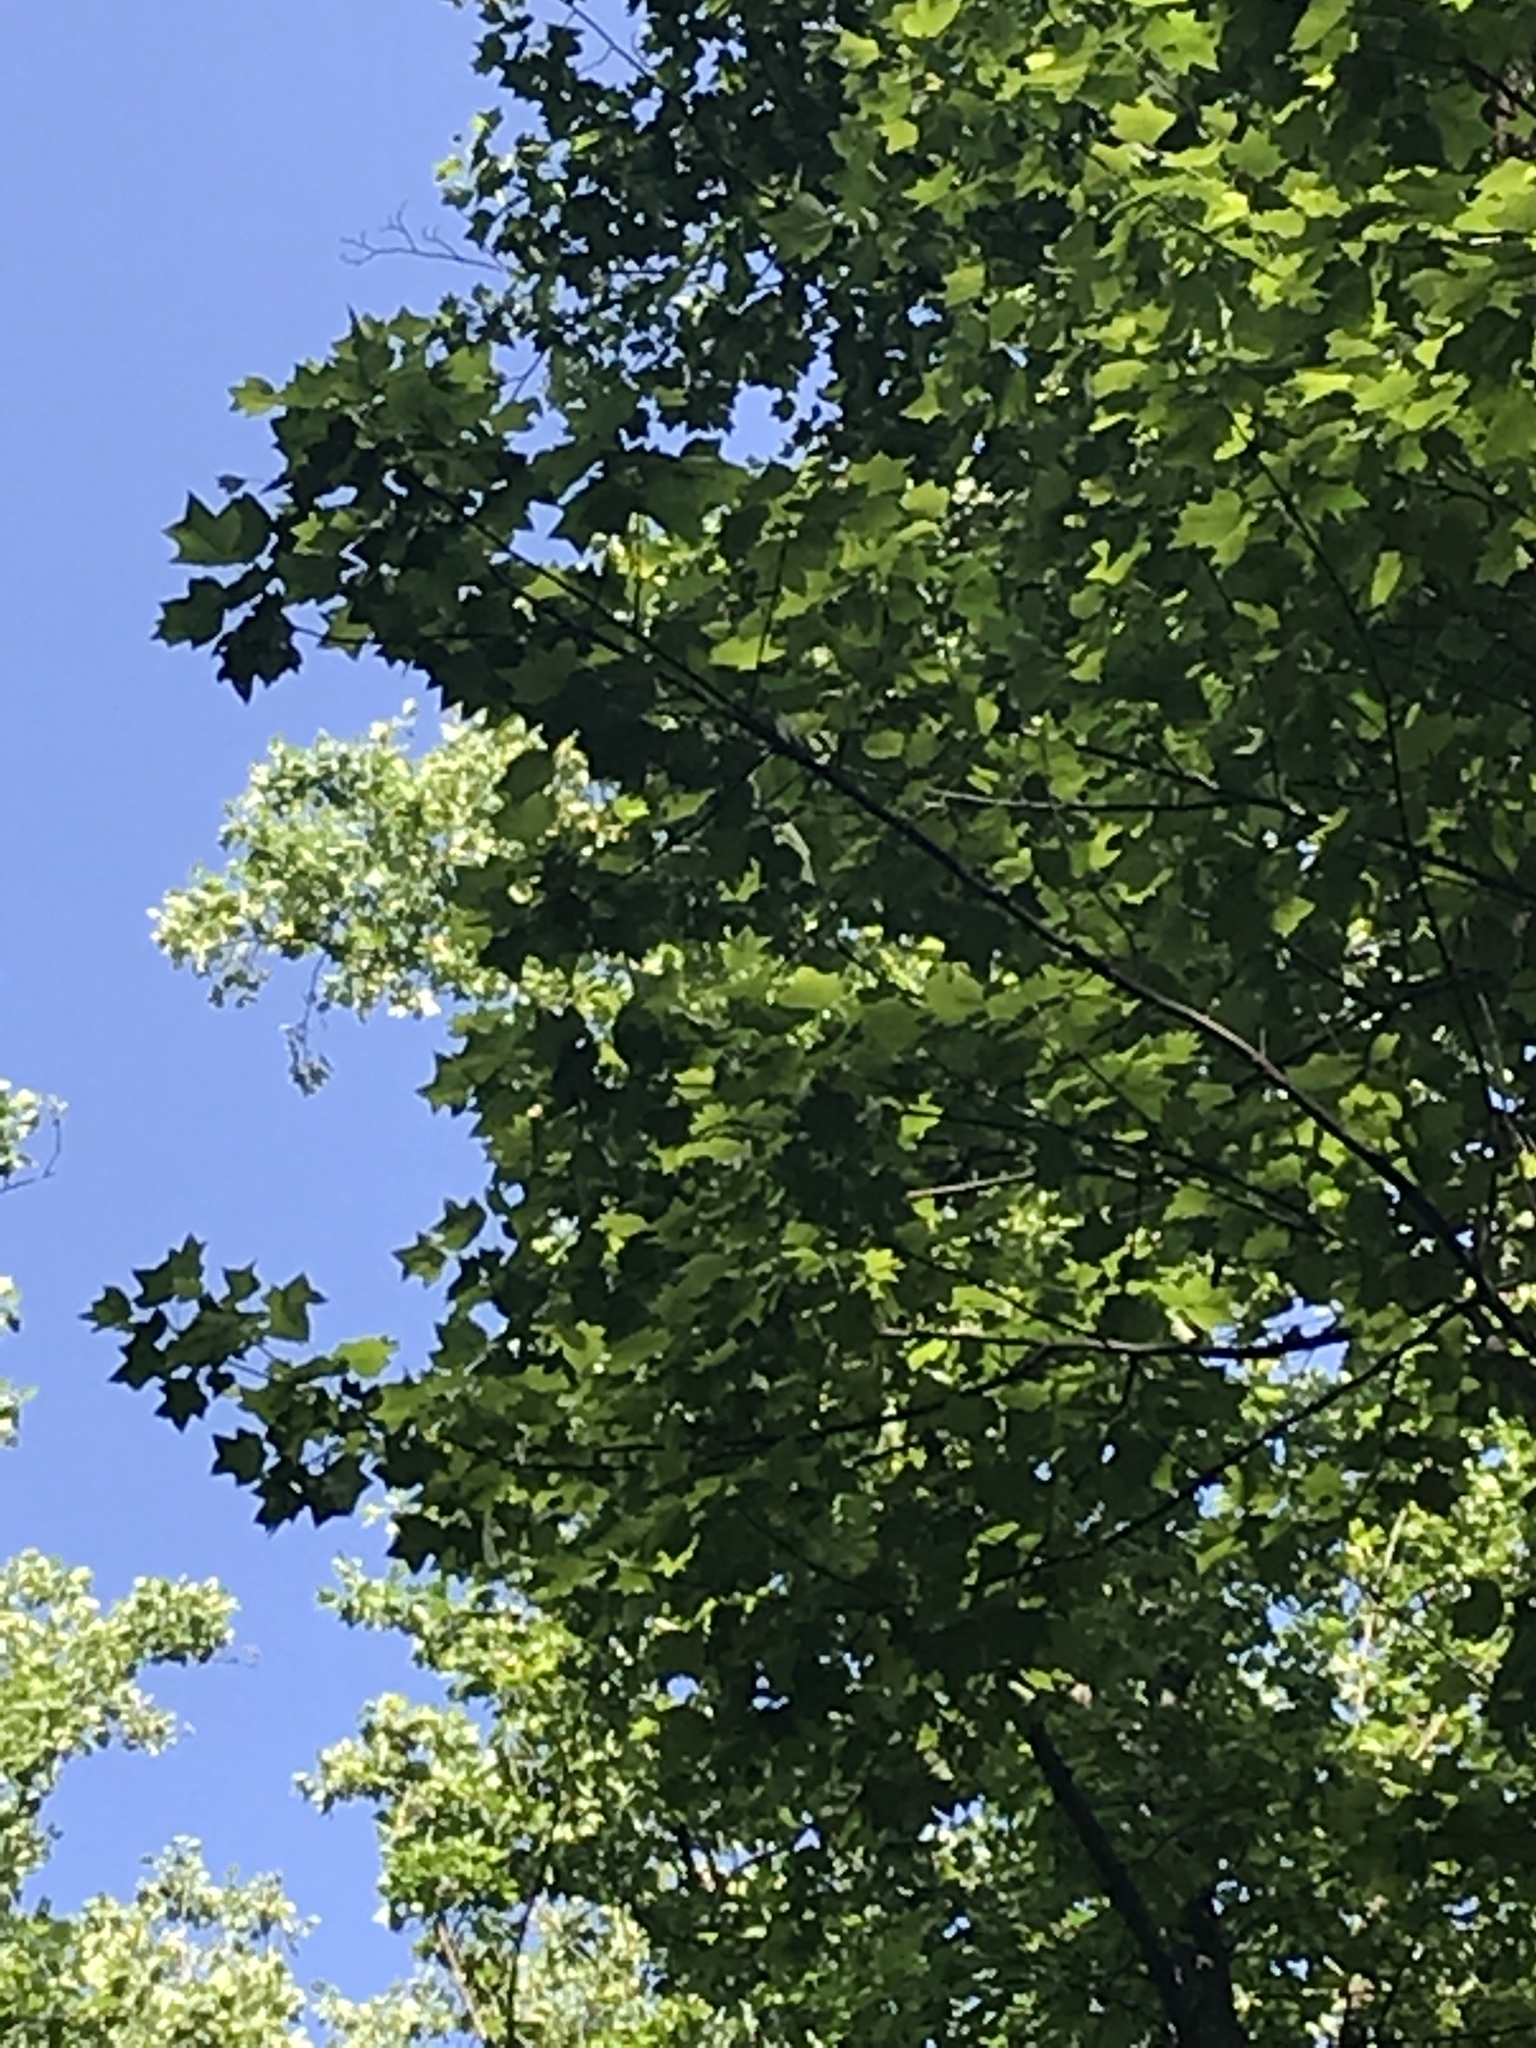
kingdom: Plantae
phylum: Tracheophyta
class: Magnoliopsida
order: Magnoliales
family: Magnoliaceae
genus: Liriodendron
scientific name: Liriodendron tulipifera
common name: Tulip tree
